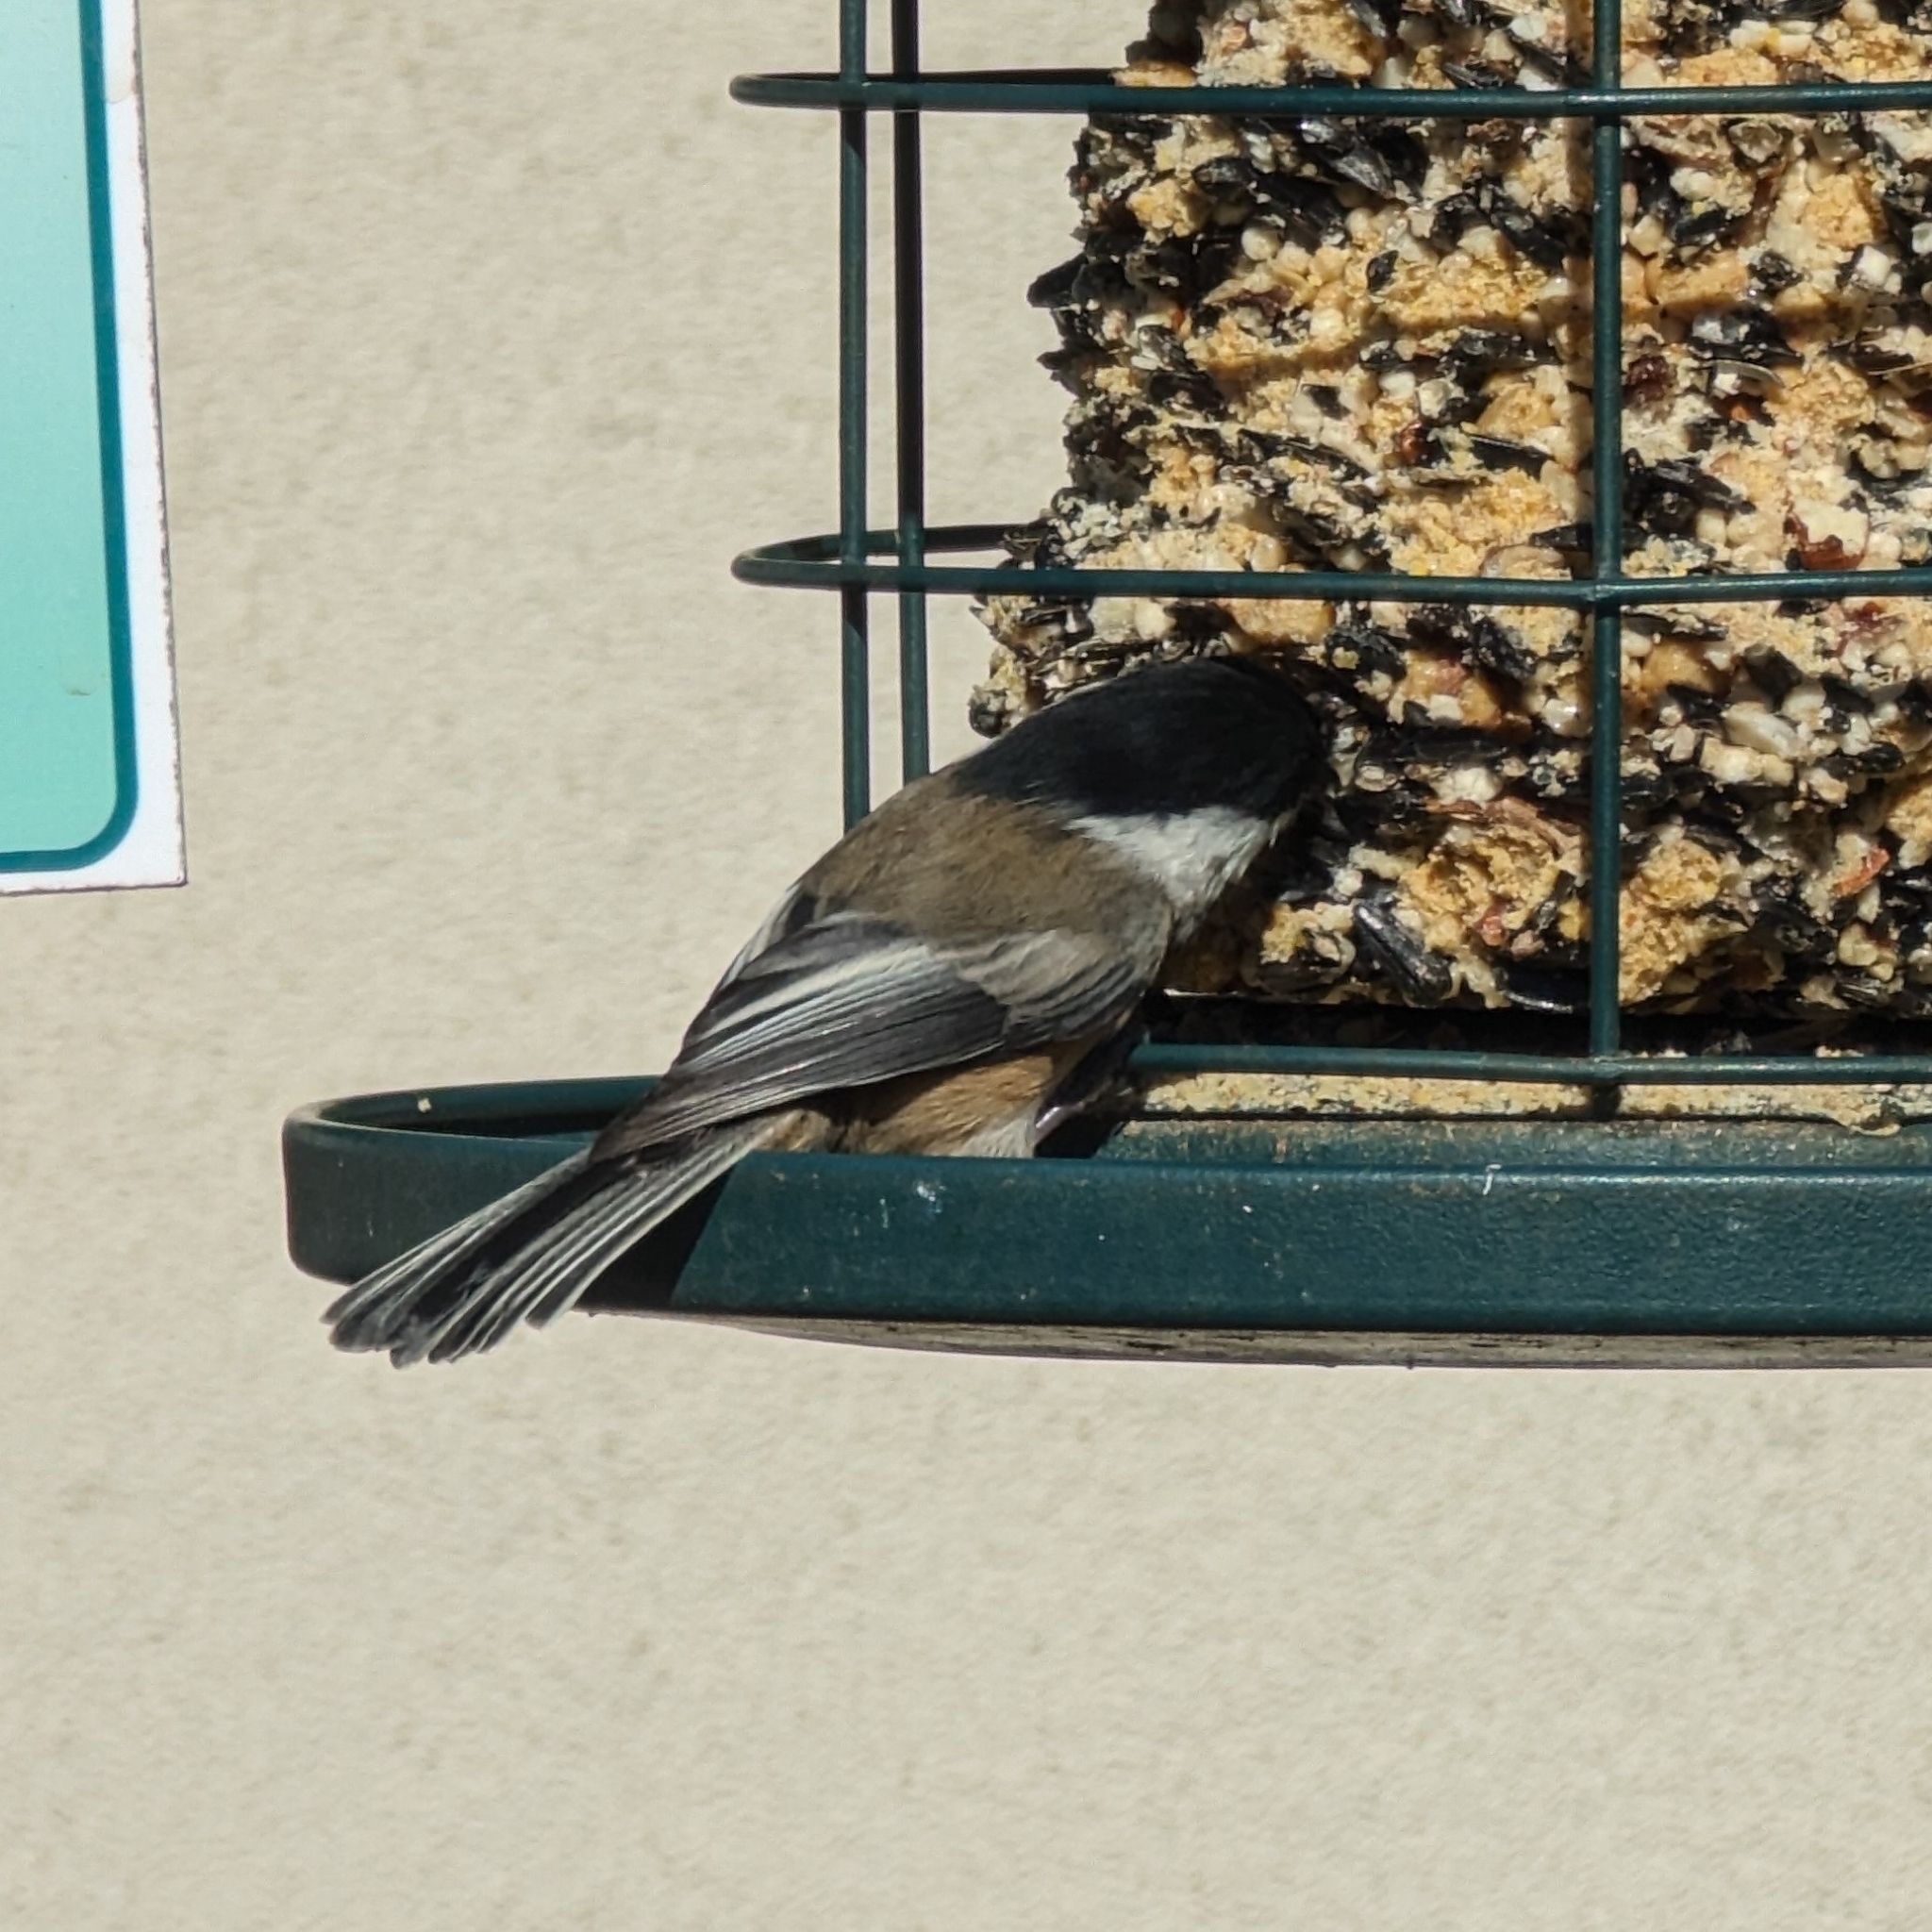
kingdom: Animalia
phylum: Chordata
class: Aves
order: Passeriformes
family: Paridae
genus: Poecile
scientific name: Poecile atricapillus
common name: Black-capped chickadee
